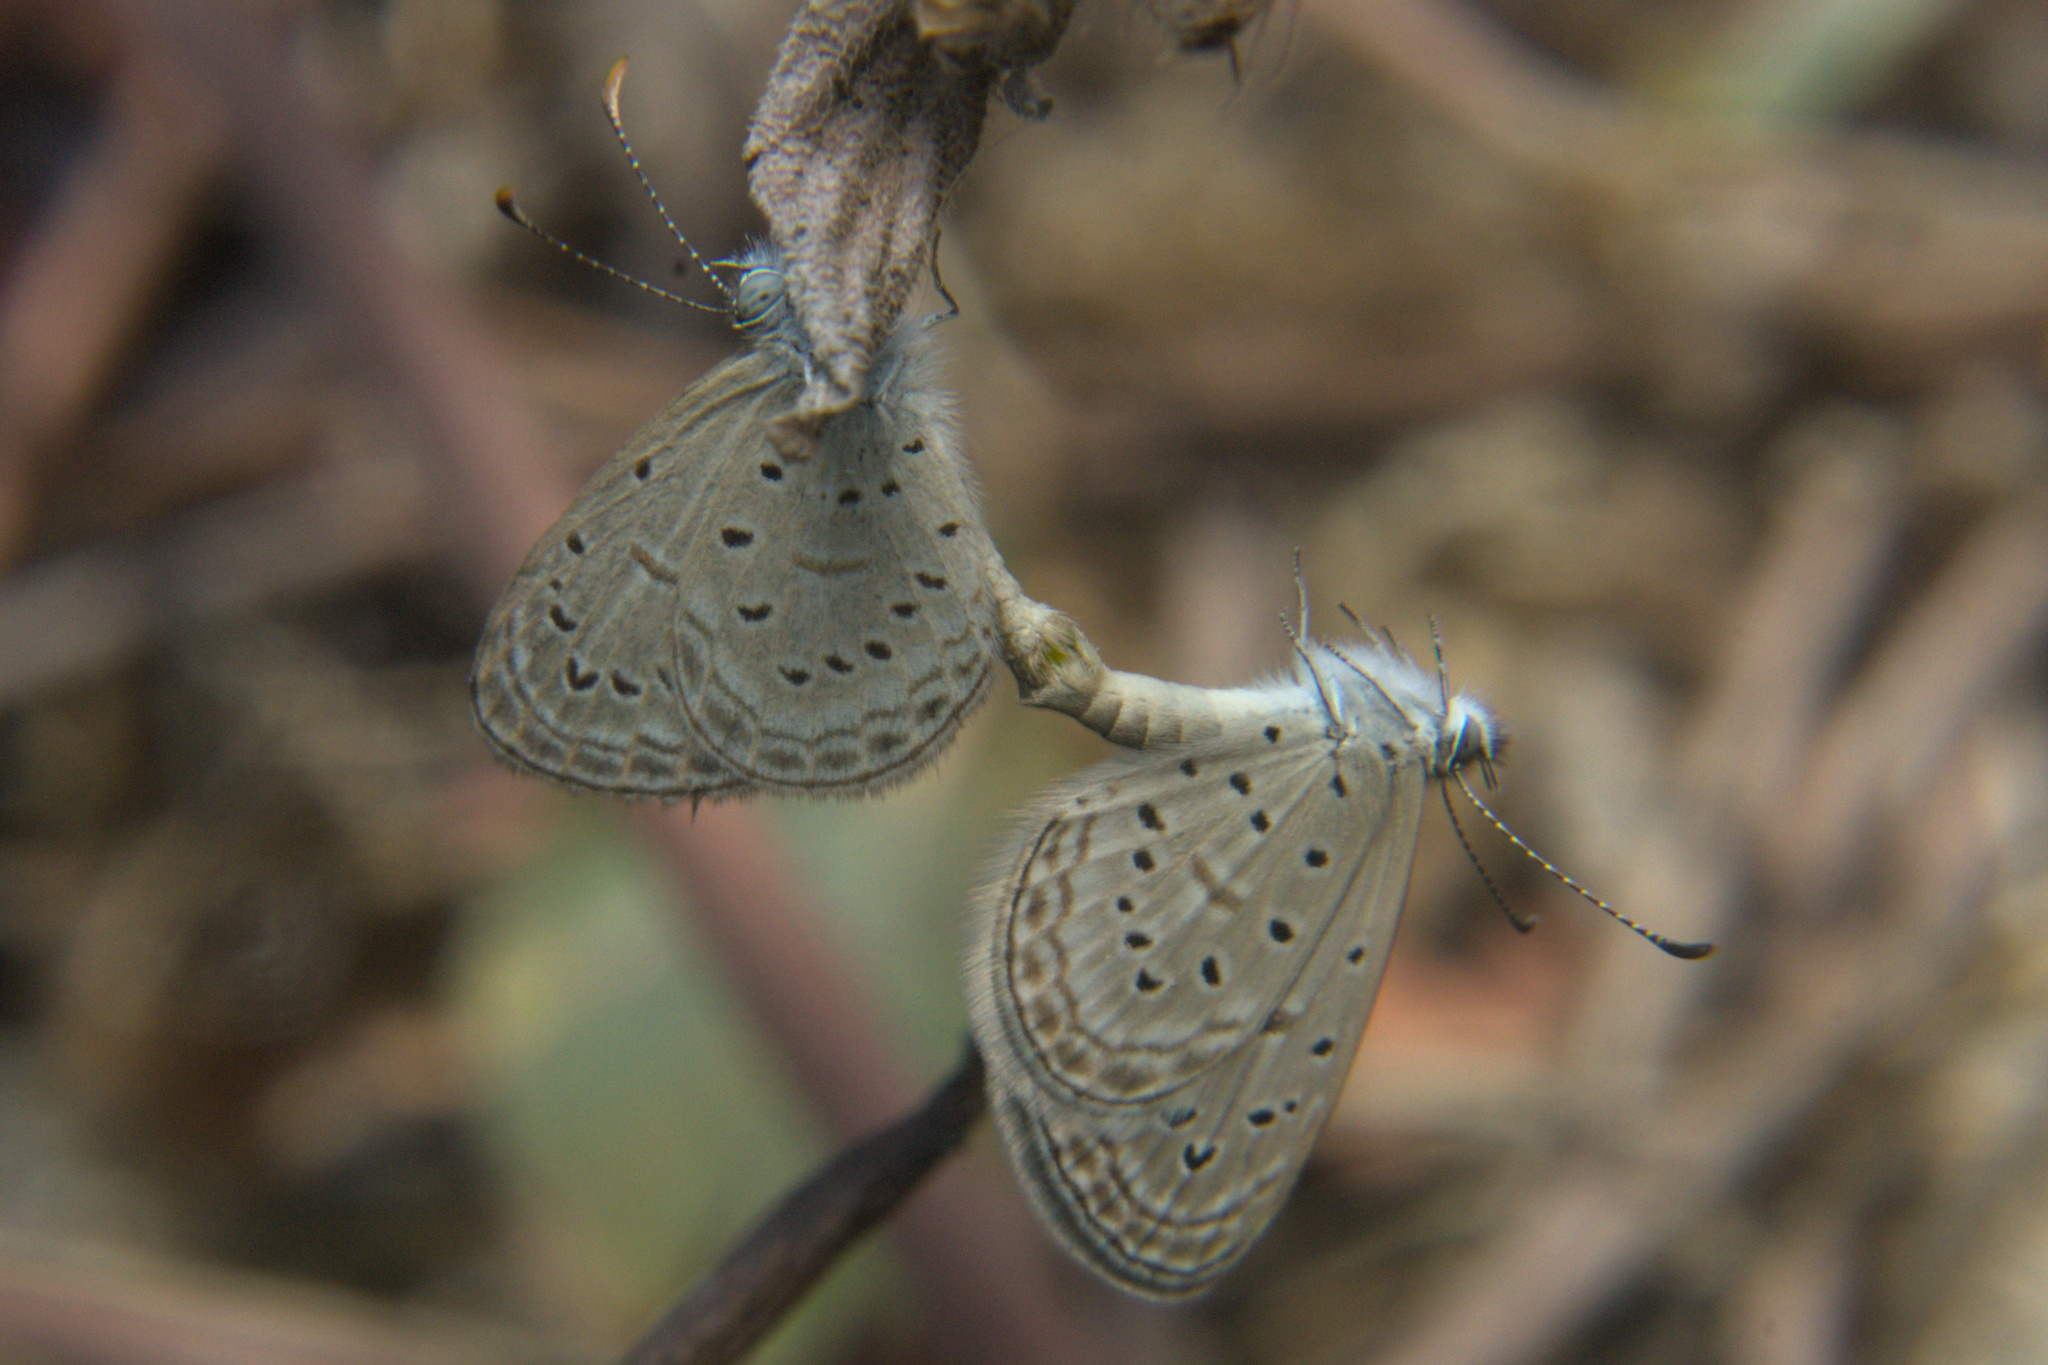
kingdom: Animalia
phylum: Arthropoda
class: Insecta
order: Lepidoptera
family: Lycaenidae
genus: Zizula
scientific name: Zizula hylax
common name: Gaika blue
